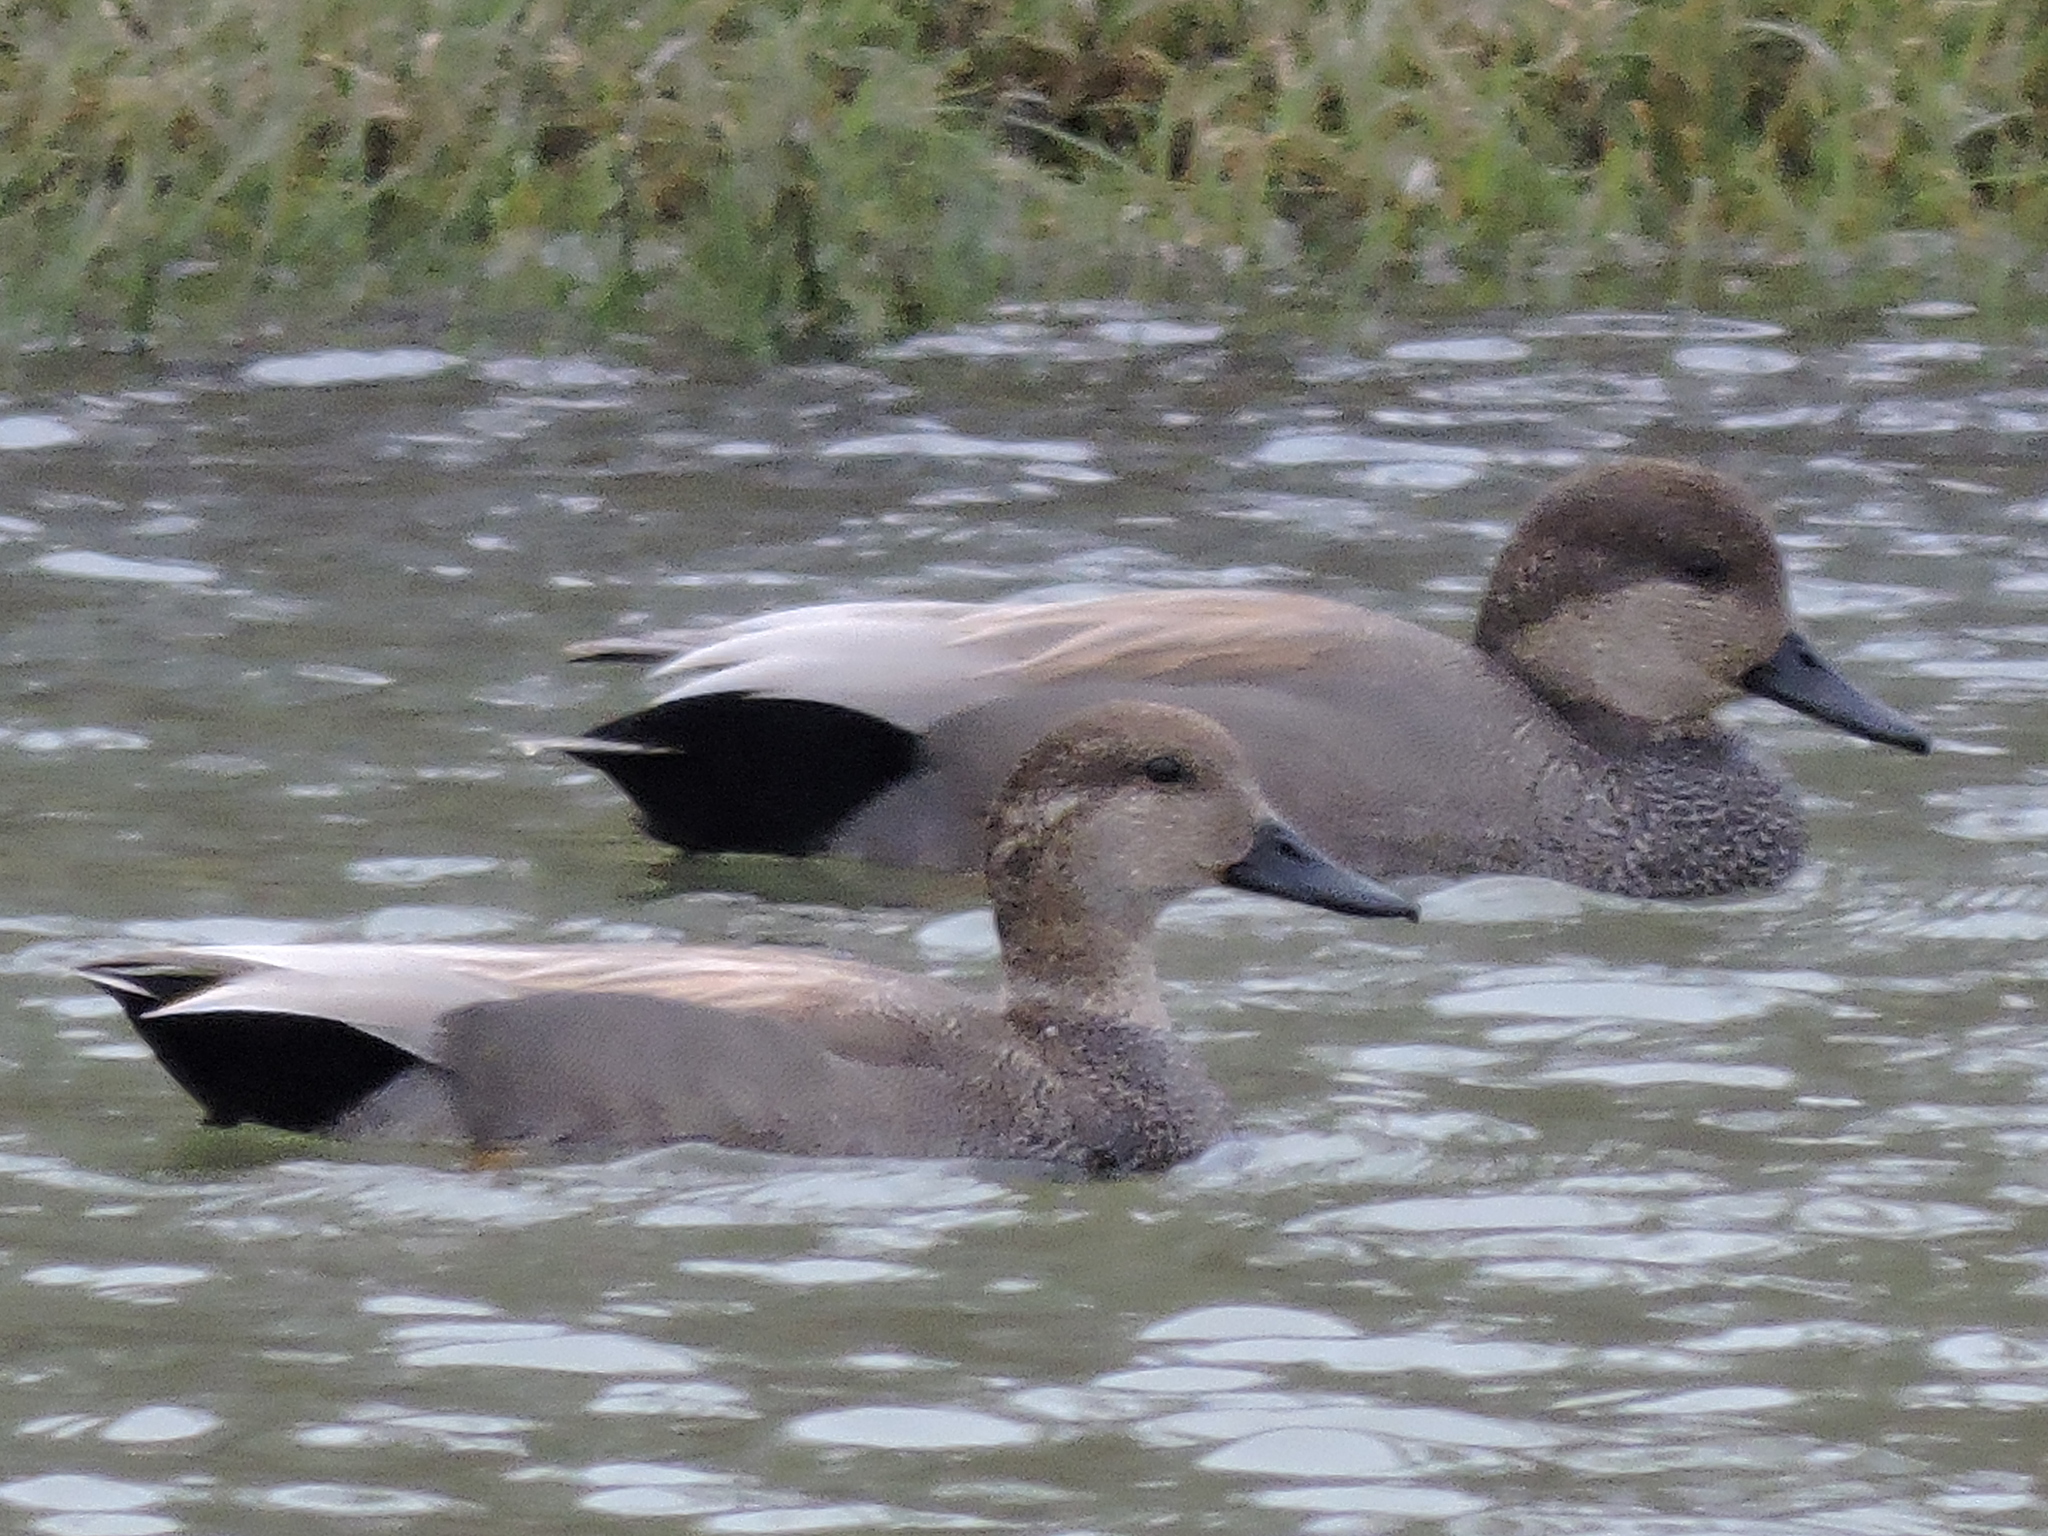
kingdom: Animalia
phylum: Chordata
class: Aves
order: Anseriformes
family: Anatidae
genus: Mareca
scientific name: Mareca strepera
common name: Gadwall
